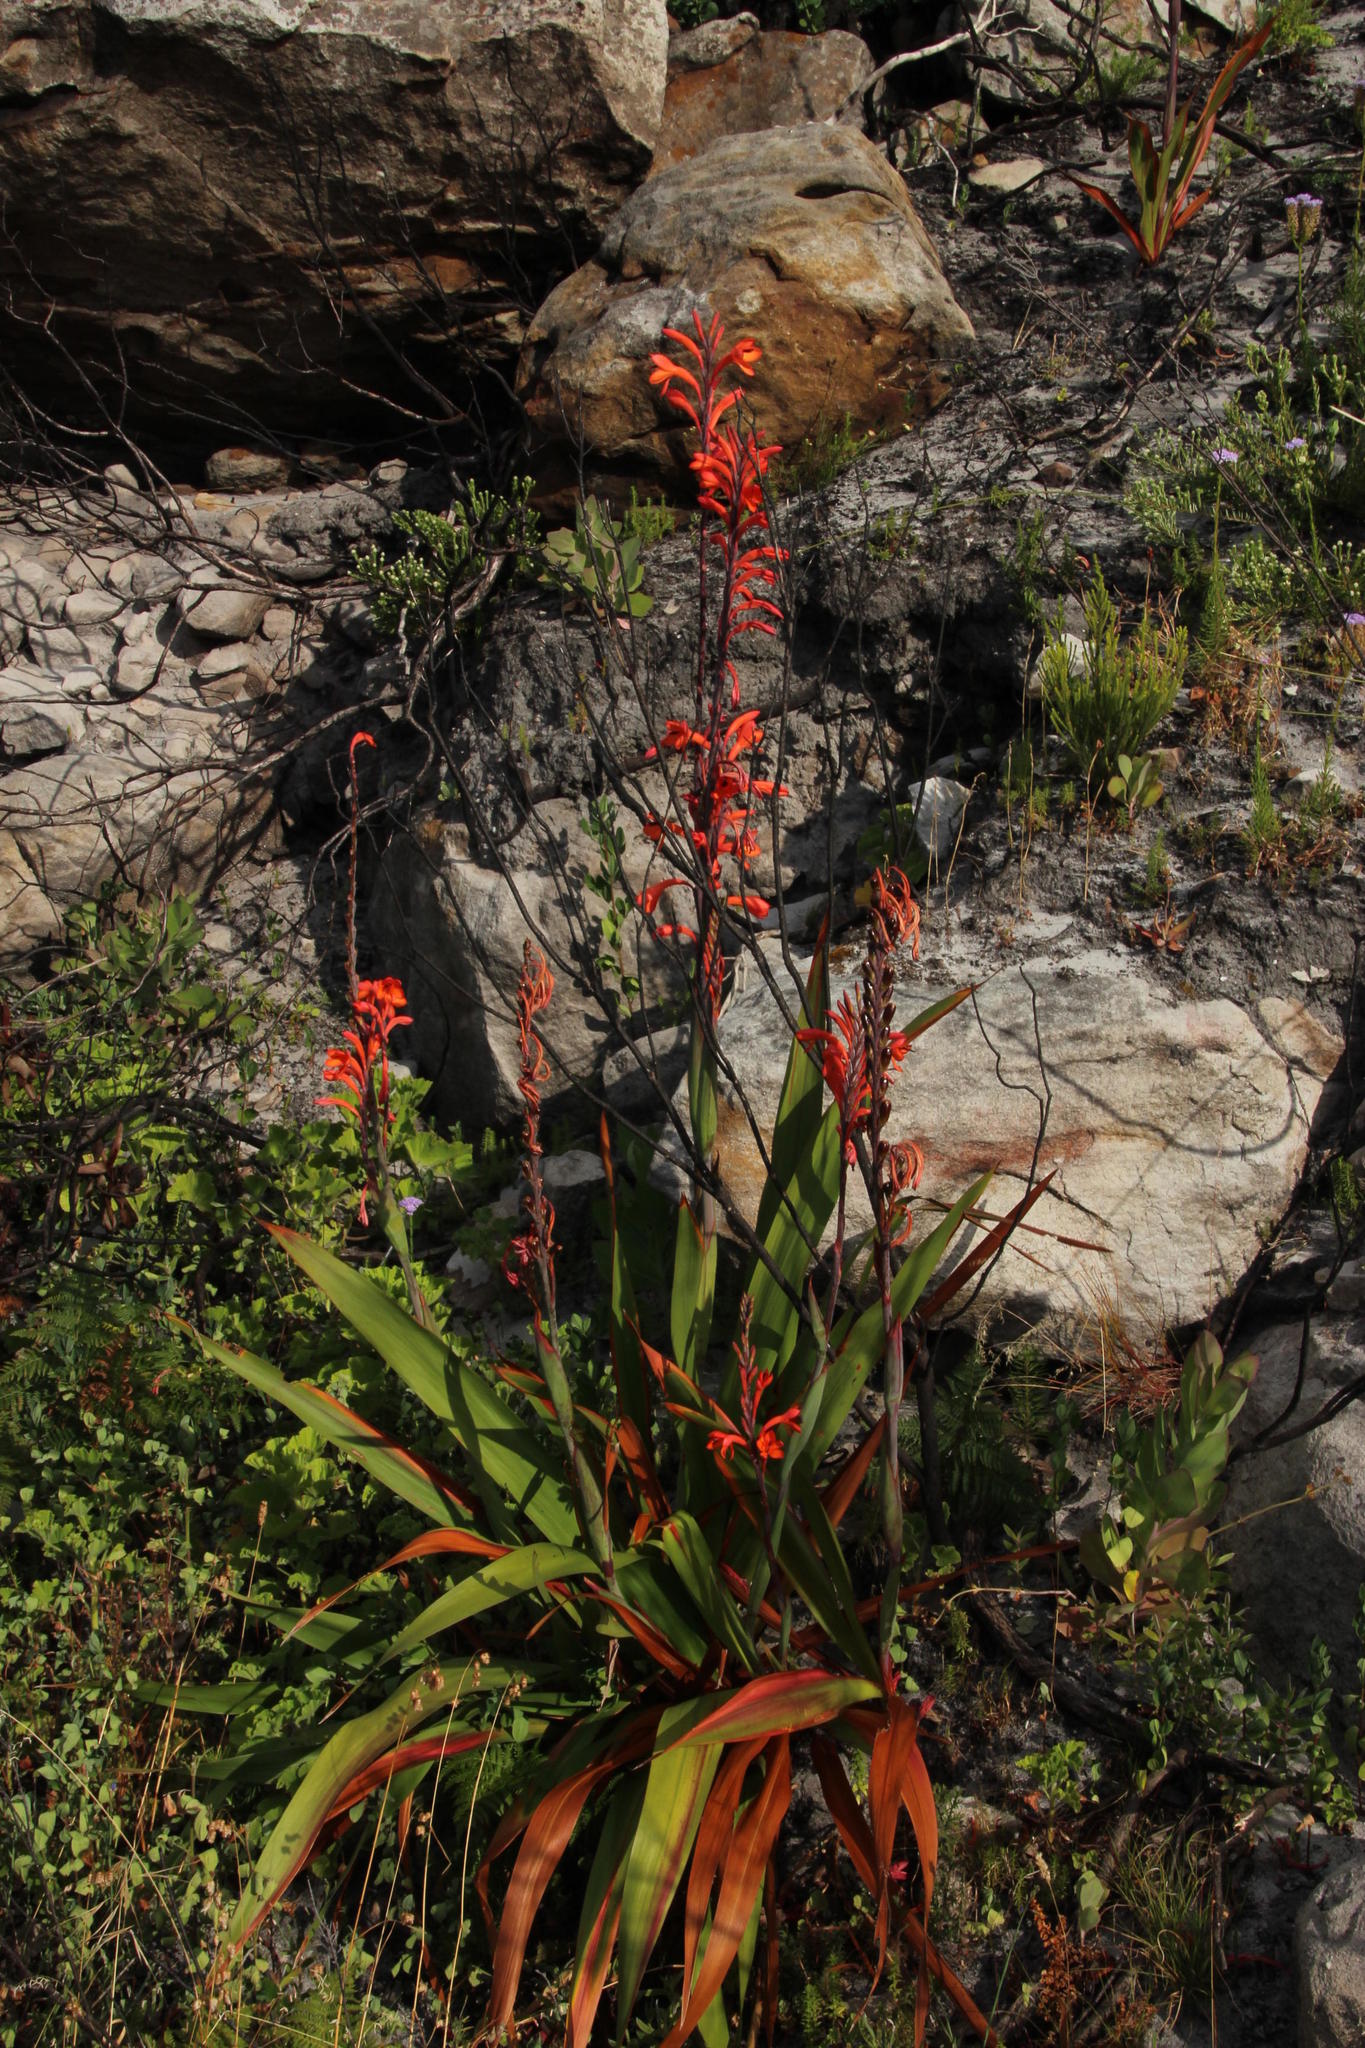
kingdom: Plantae
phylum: Tracheophyta
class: Liliopsida
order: Asparagales
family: Iridaceae
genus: Watsonia
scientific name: Watsonia tabularis
